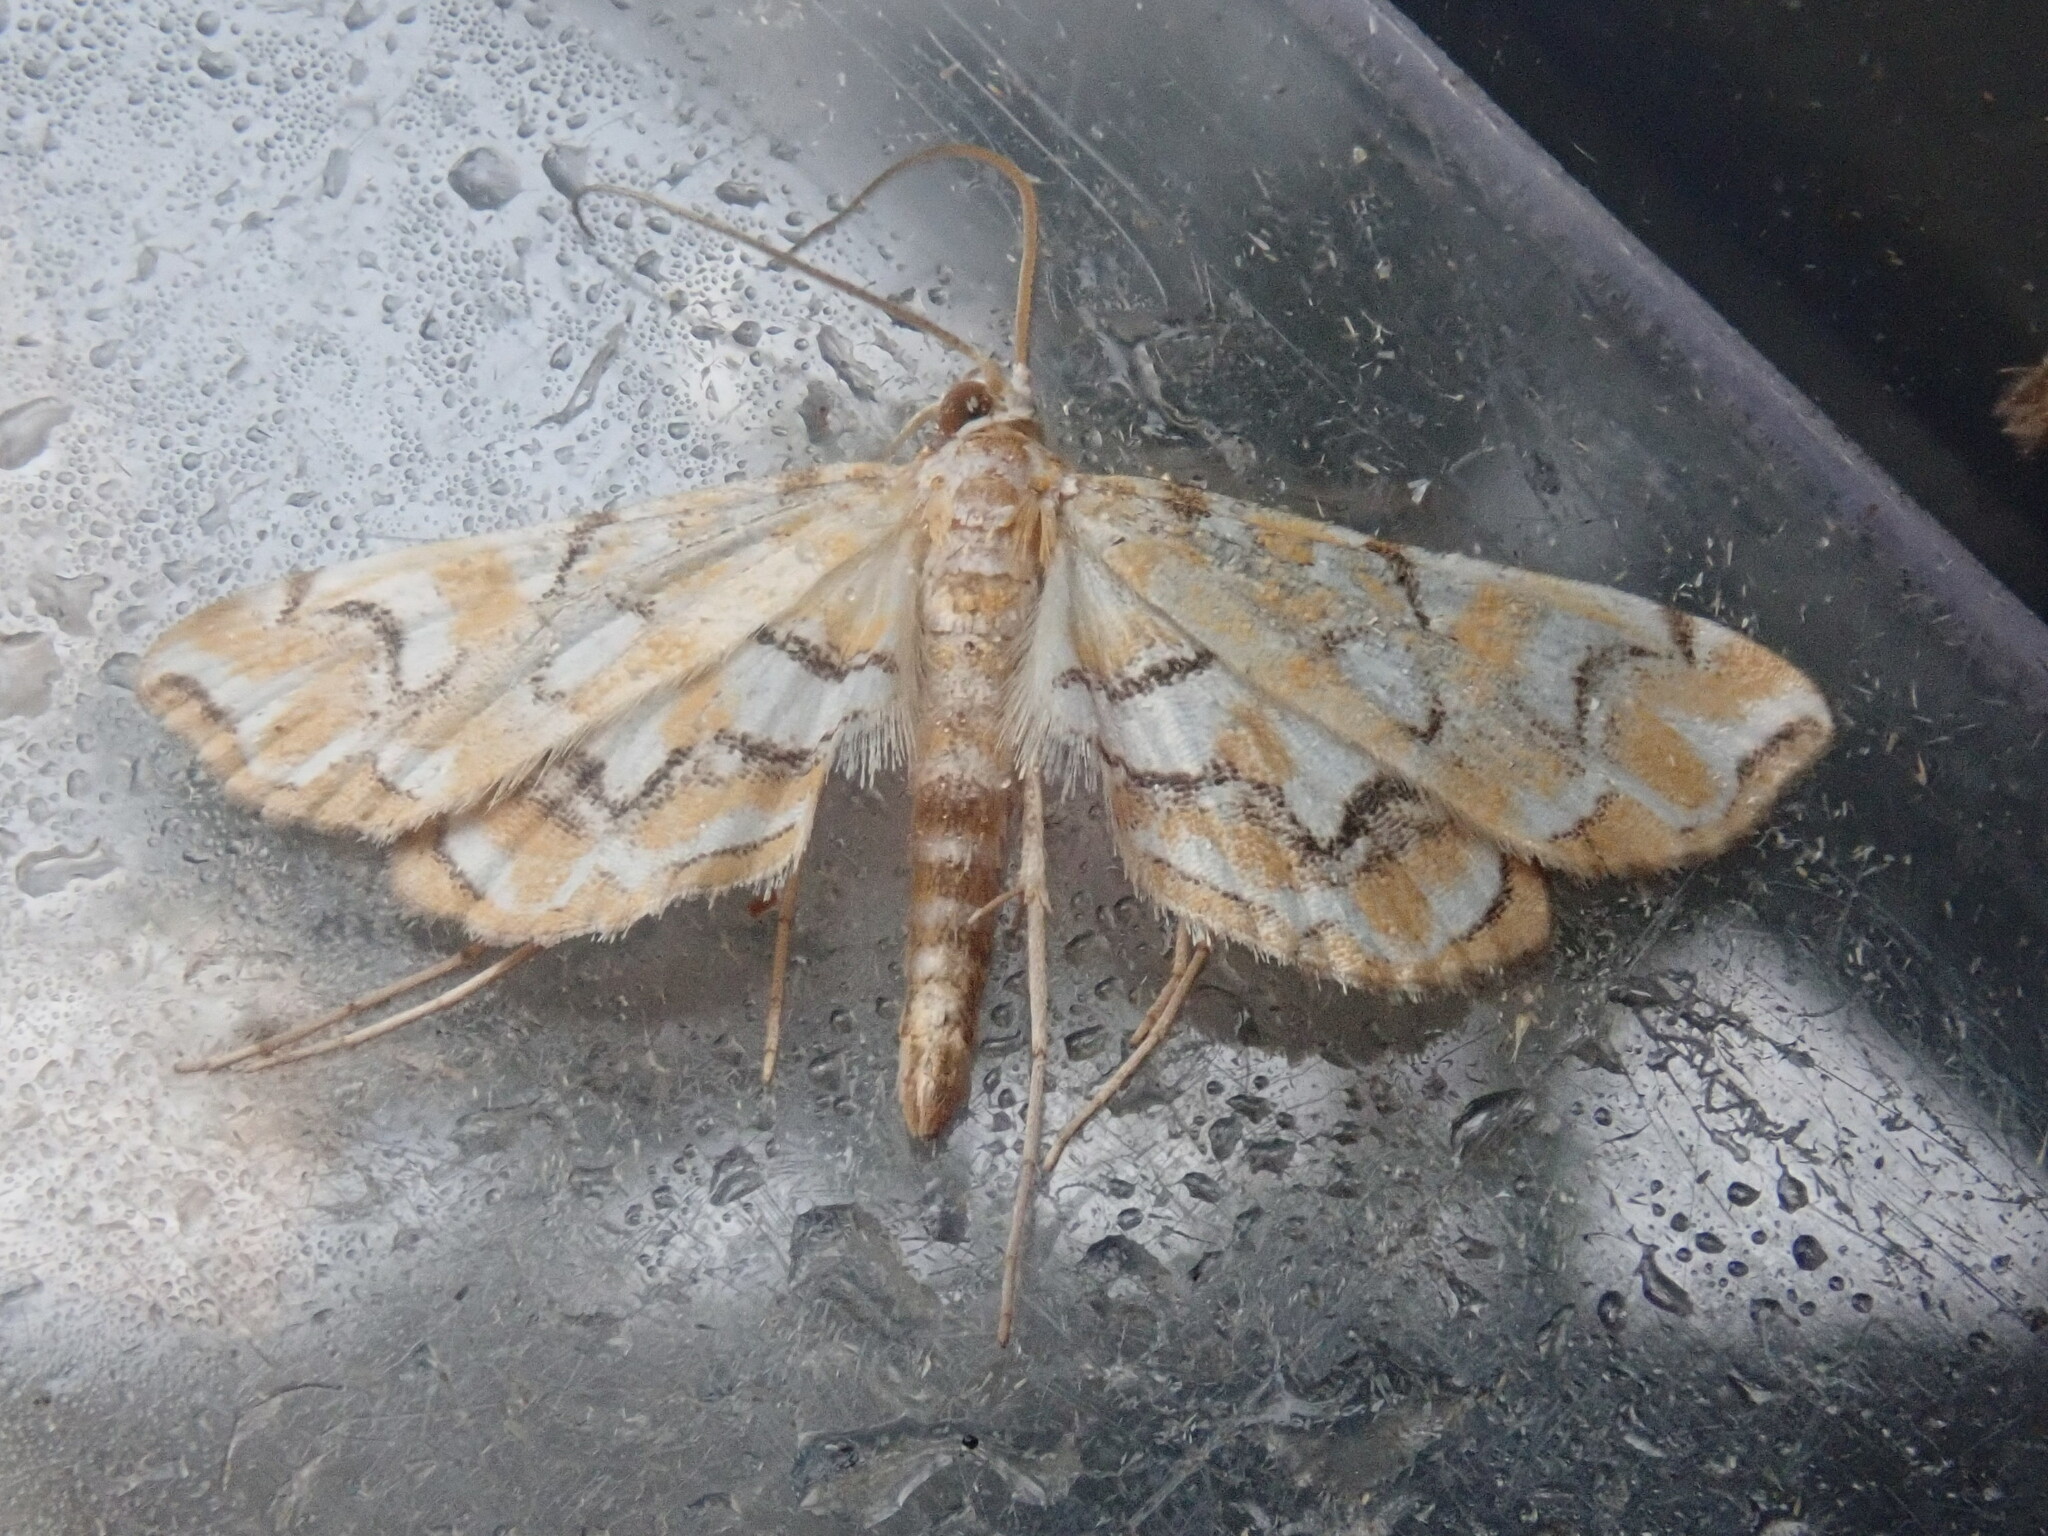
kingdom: Animalia
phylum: Arthropoda
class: Insecta
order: Lepidoptera
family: Crambidae
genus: Elophila
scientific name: Elophila icciusalis
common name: Pondside pyralid moth
